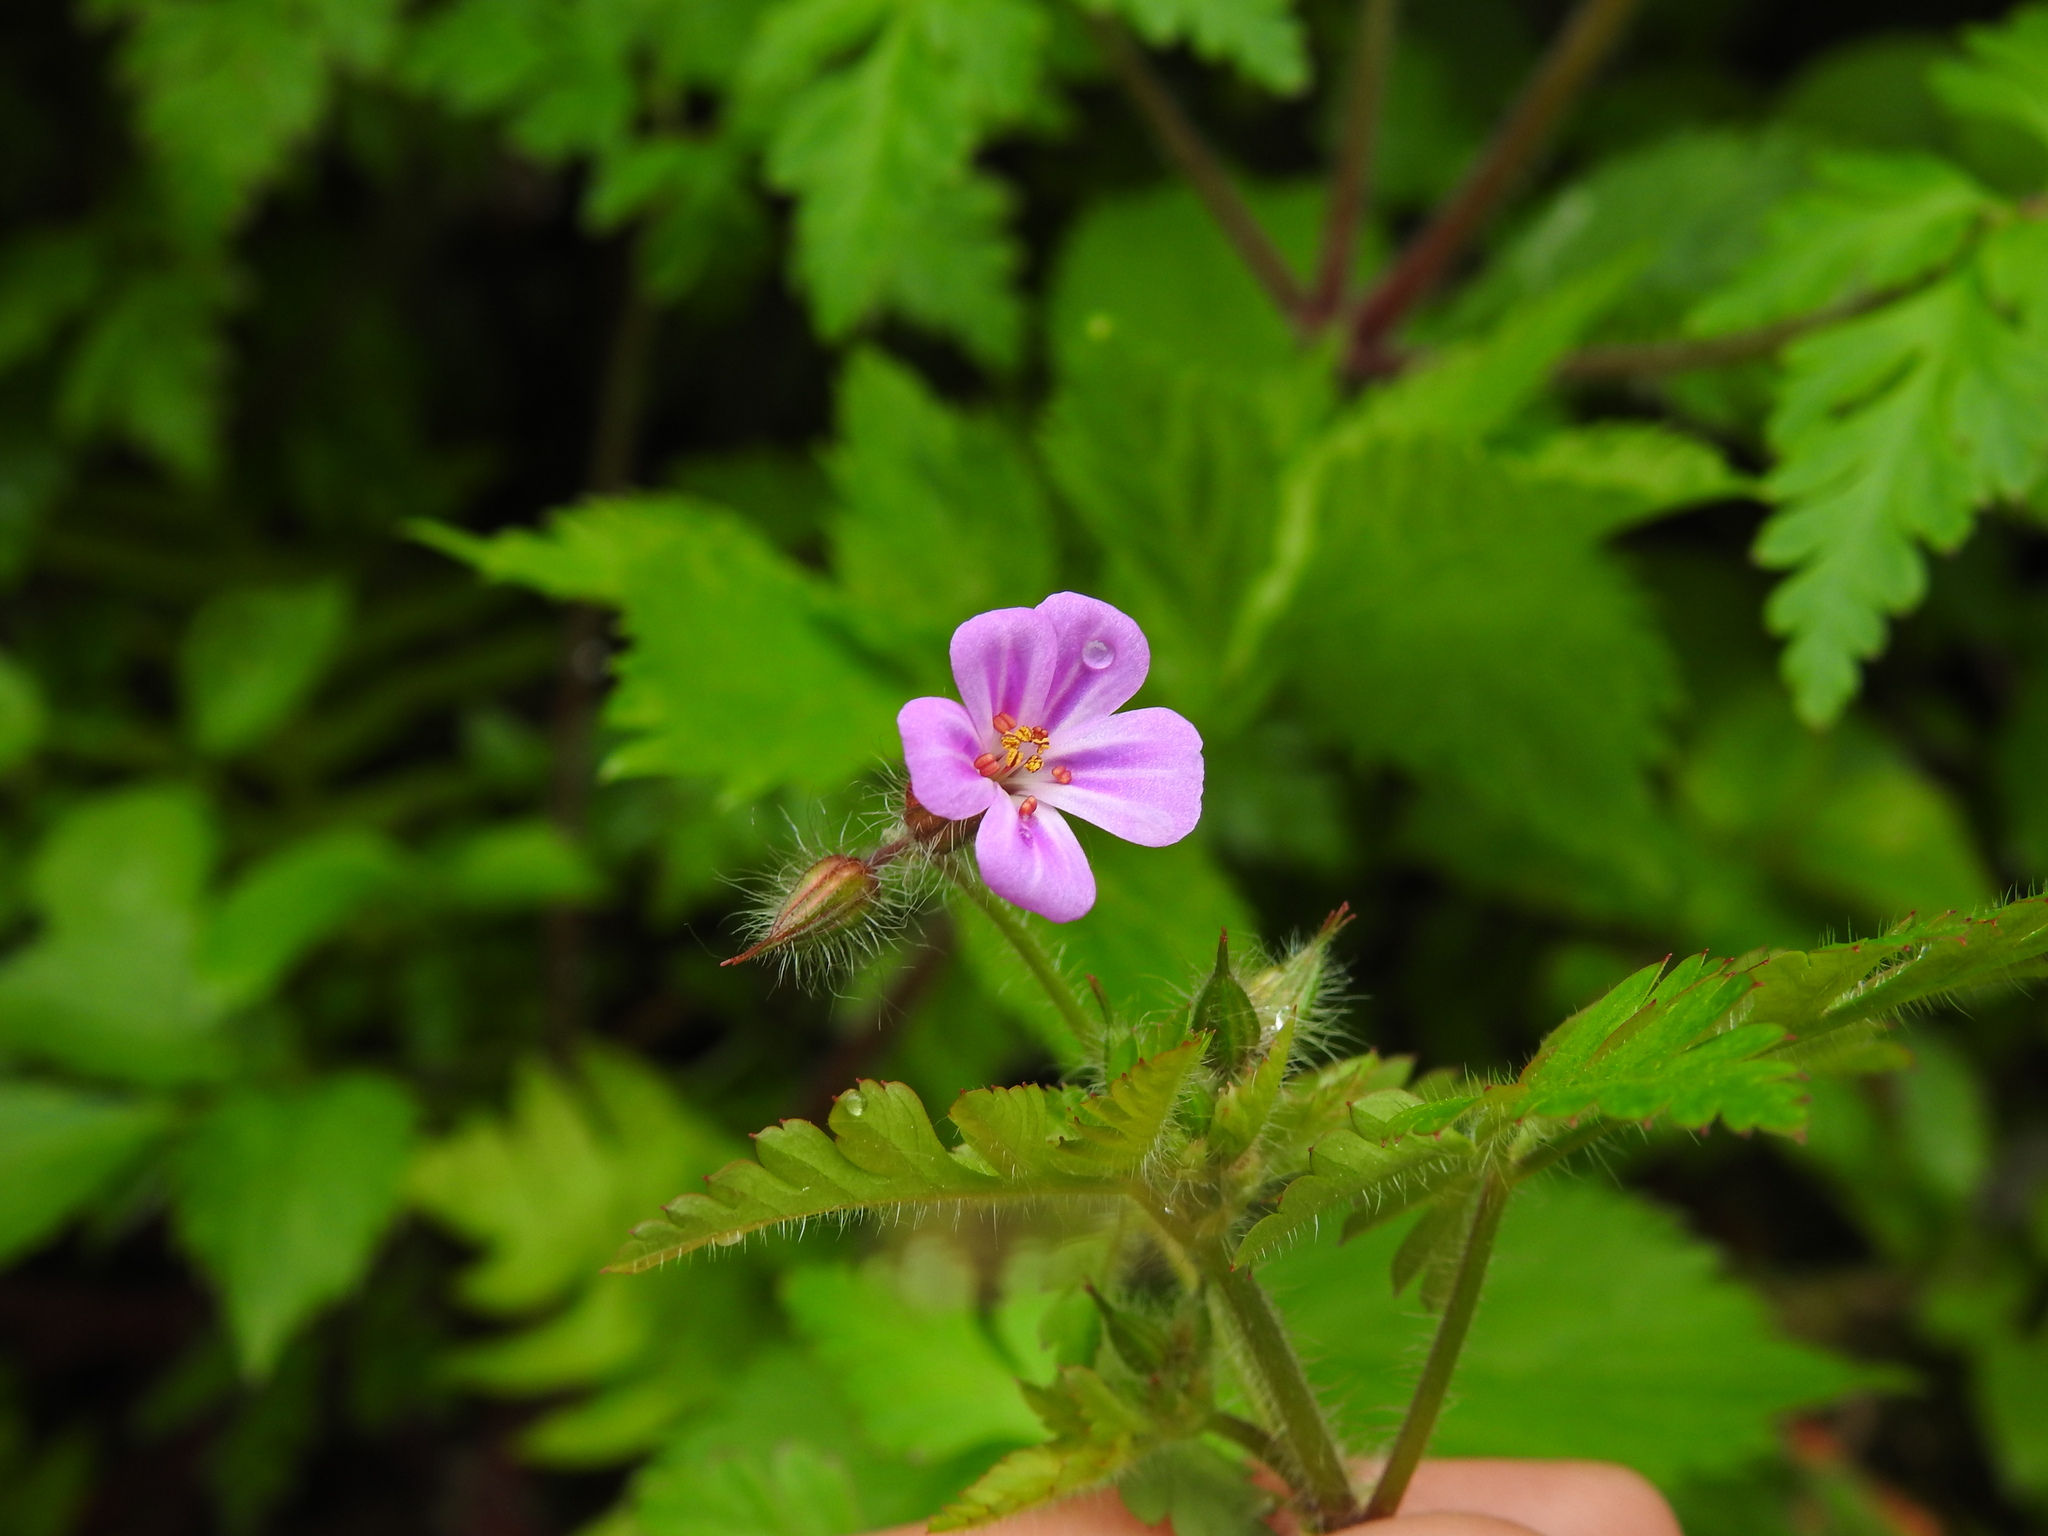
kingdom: Plantae
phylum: Tracheophyta
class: Magnoliopsida
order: Geraniales
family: Geraniaceae
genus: Geranium
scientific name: Geranium robertianum
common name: Herb-robert
